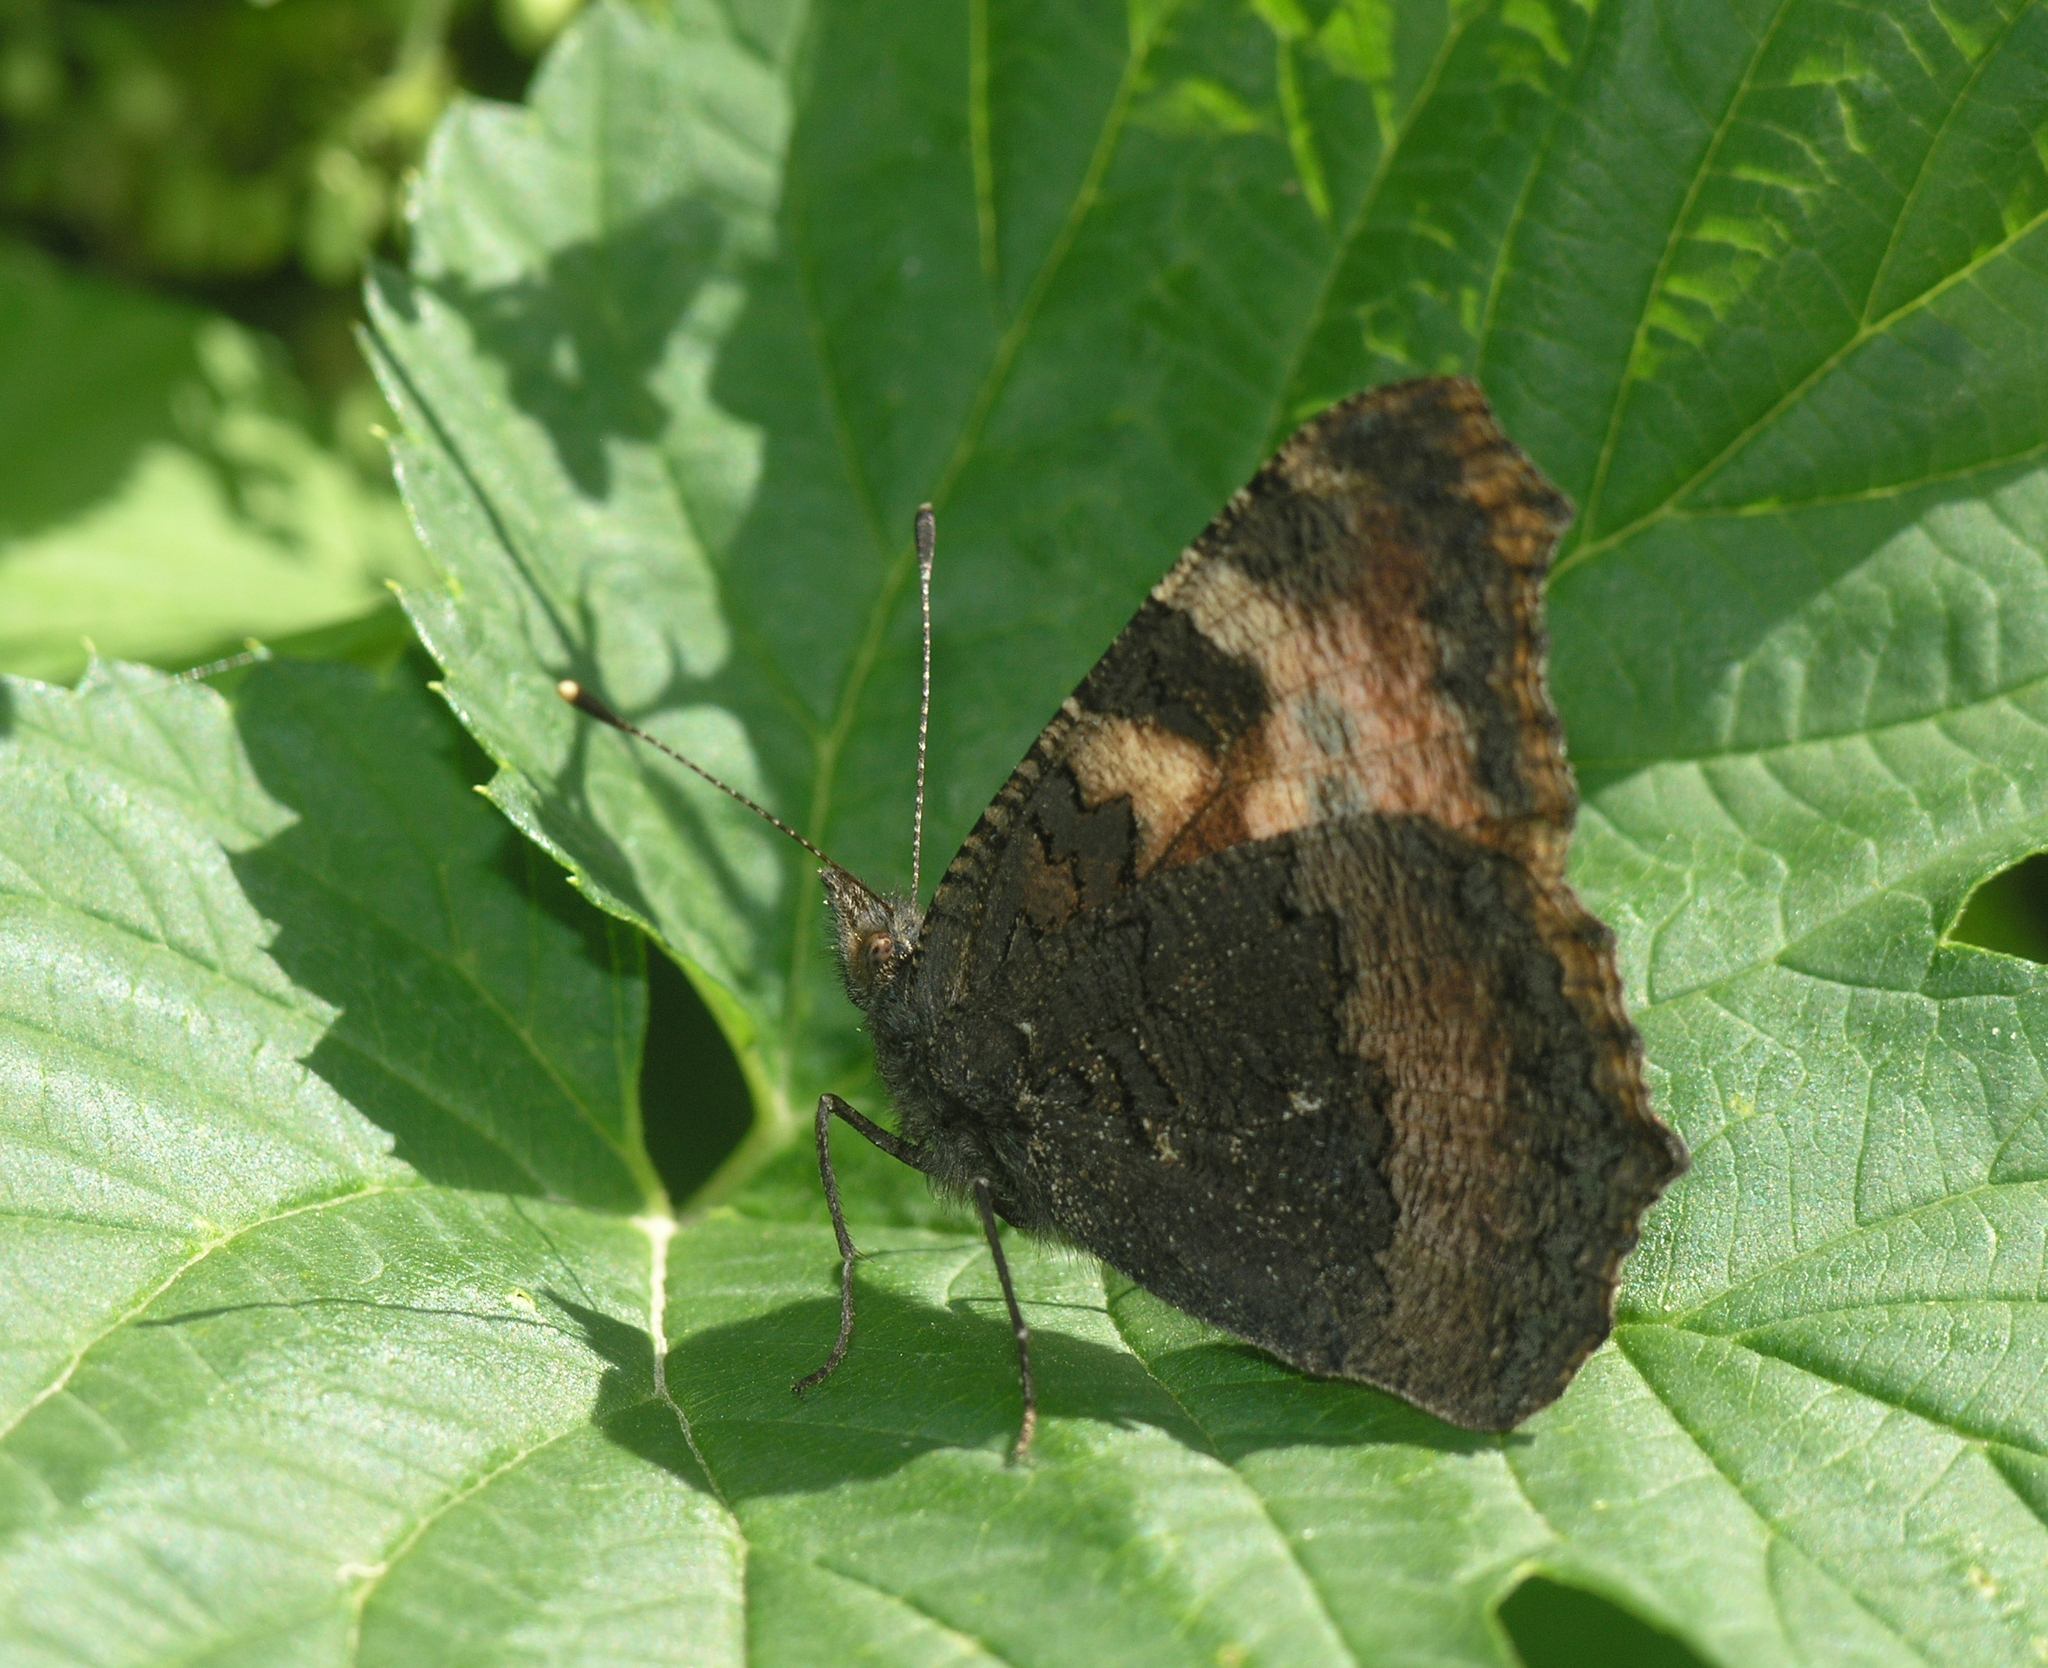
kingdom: Animalia
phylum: Arthropoda
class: Insecta
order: Lepidoptera
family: Nymphalidae
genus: Aglais
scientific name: Aglais urticae
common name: Small tortoiseshell
